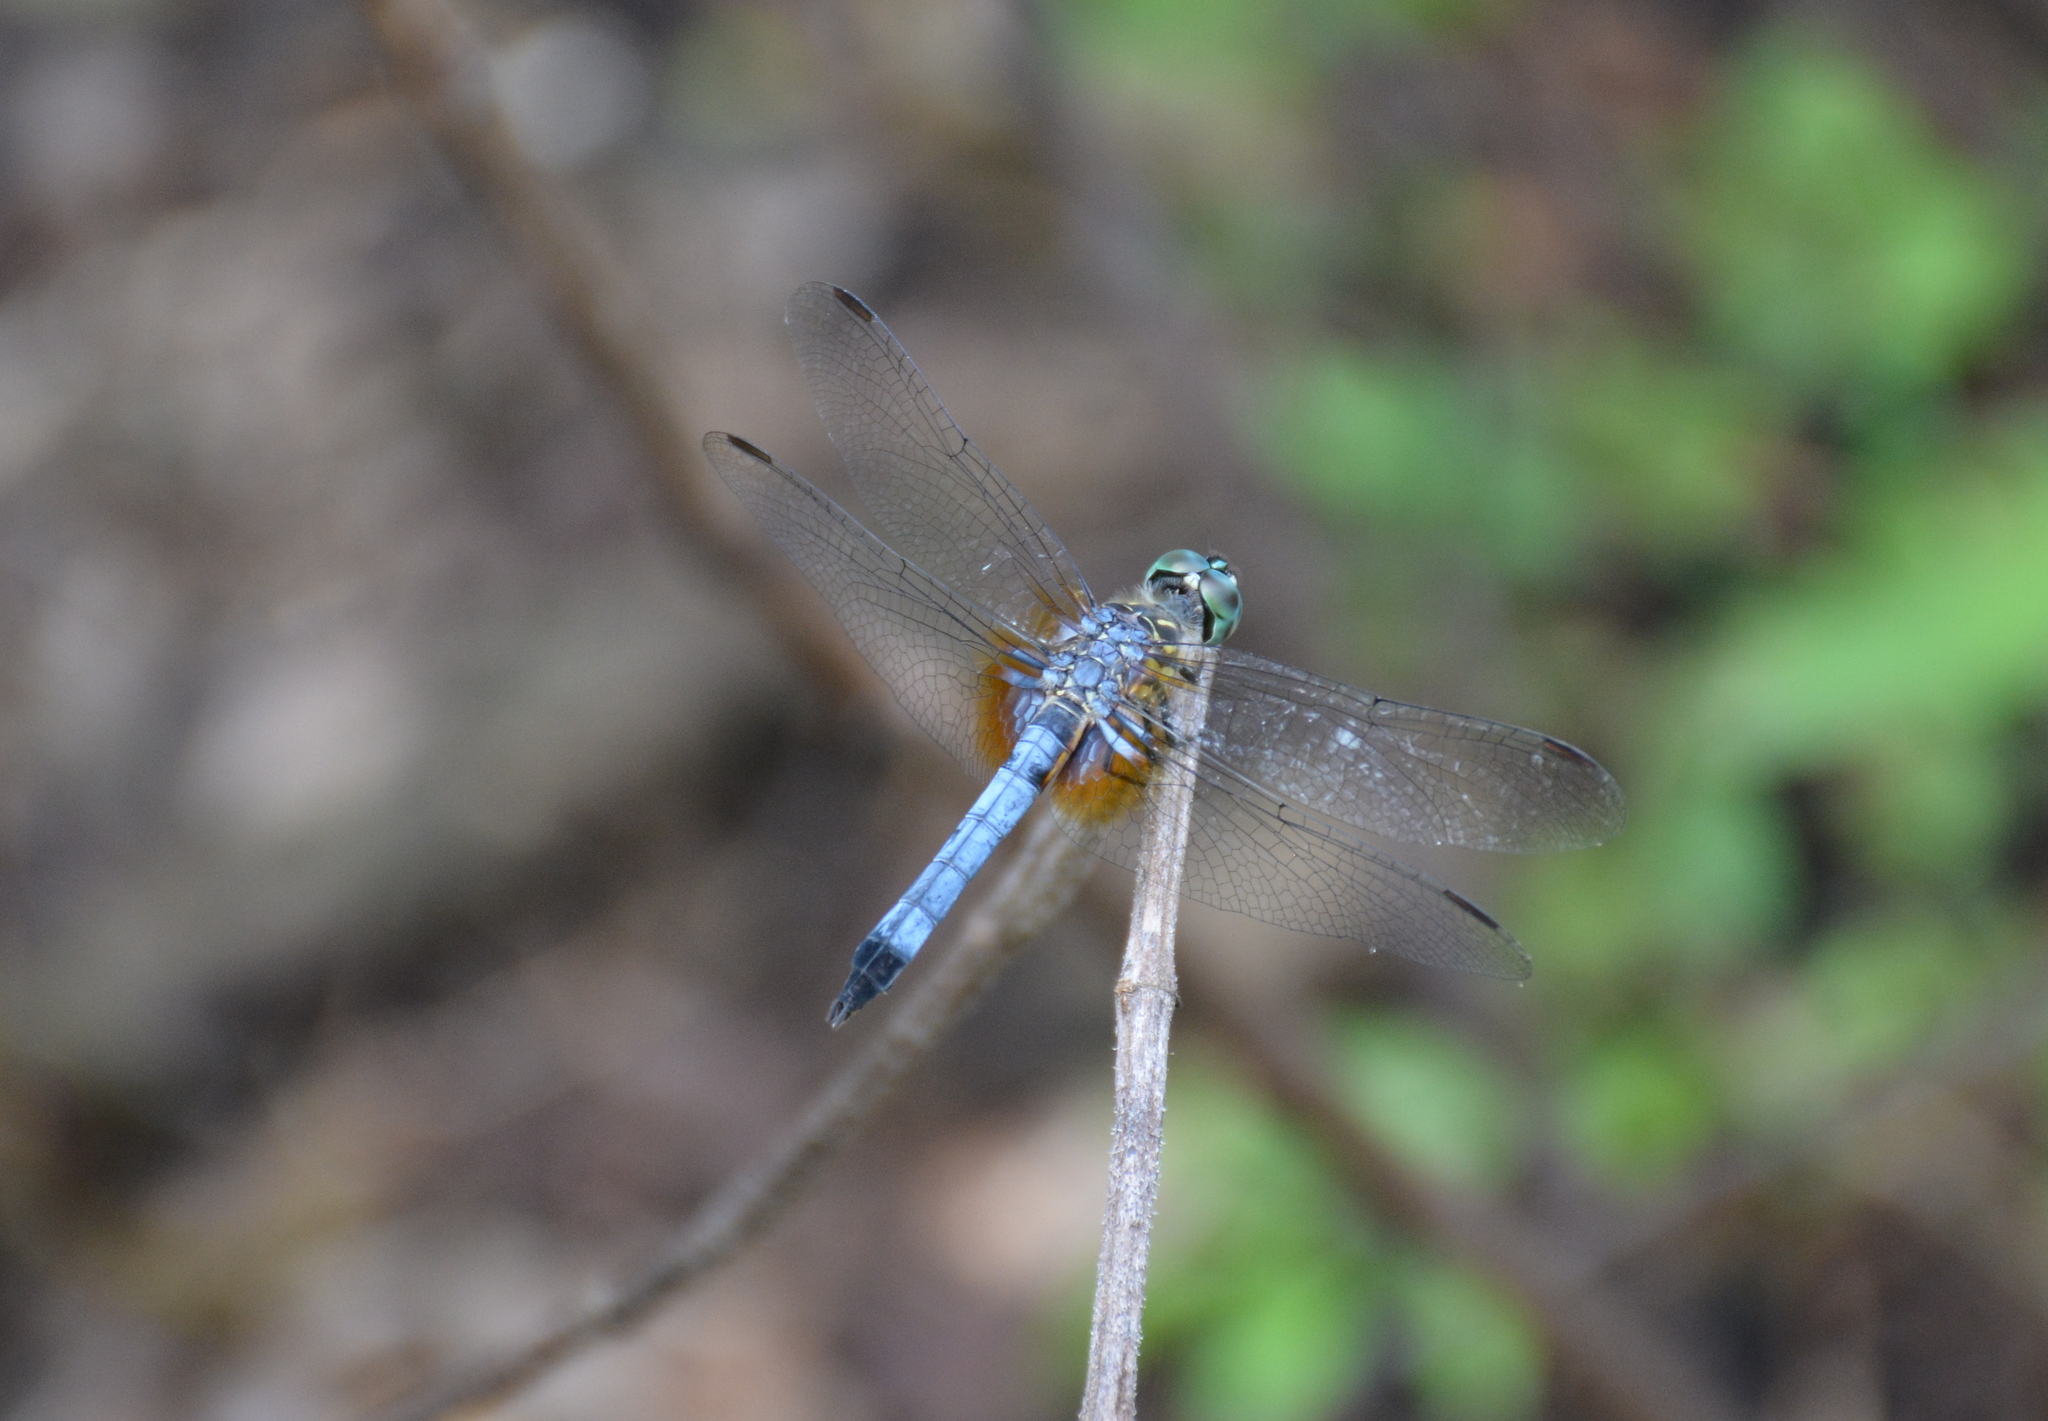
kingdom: Animalia
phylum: Arthropoda
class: Insecta
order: Odonata
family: Libellulidae
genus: Pachydiplax
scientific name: Pachydiplax longipennis
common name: Blue dasher
